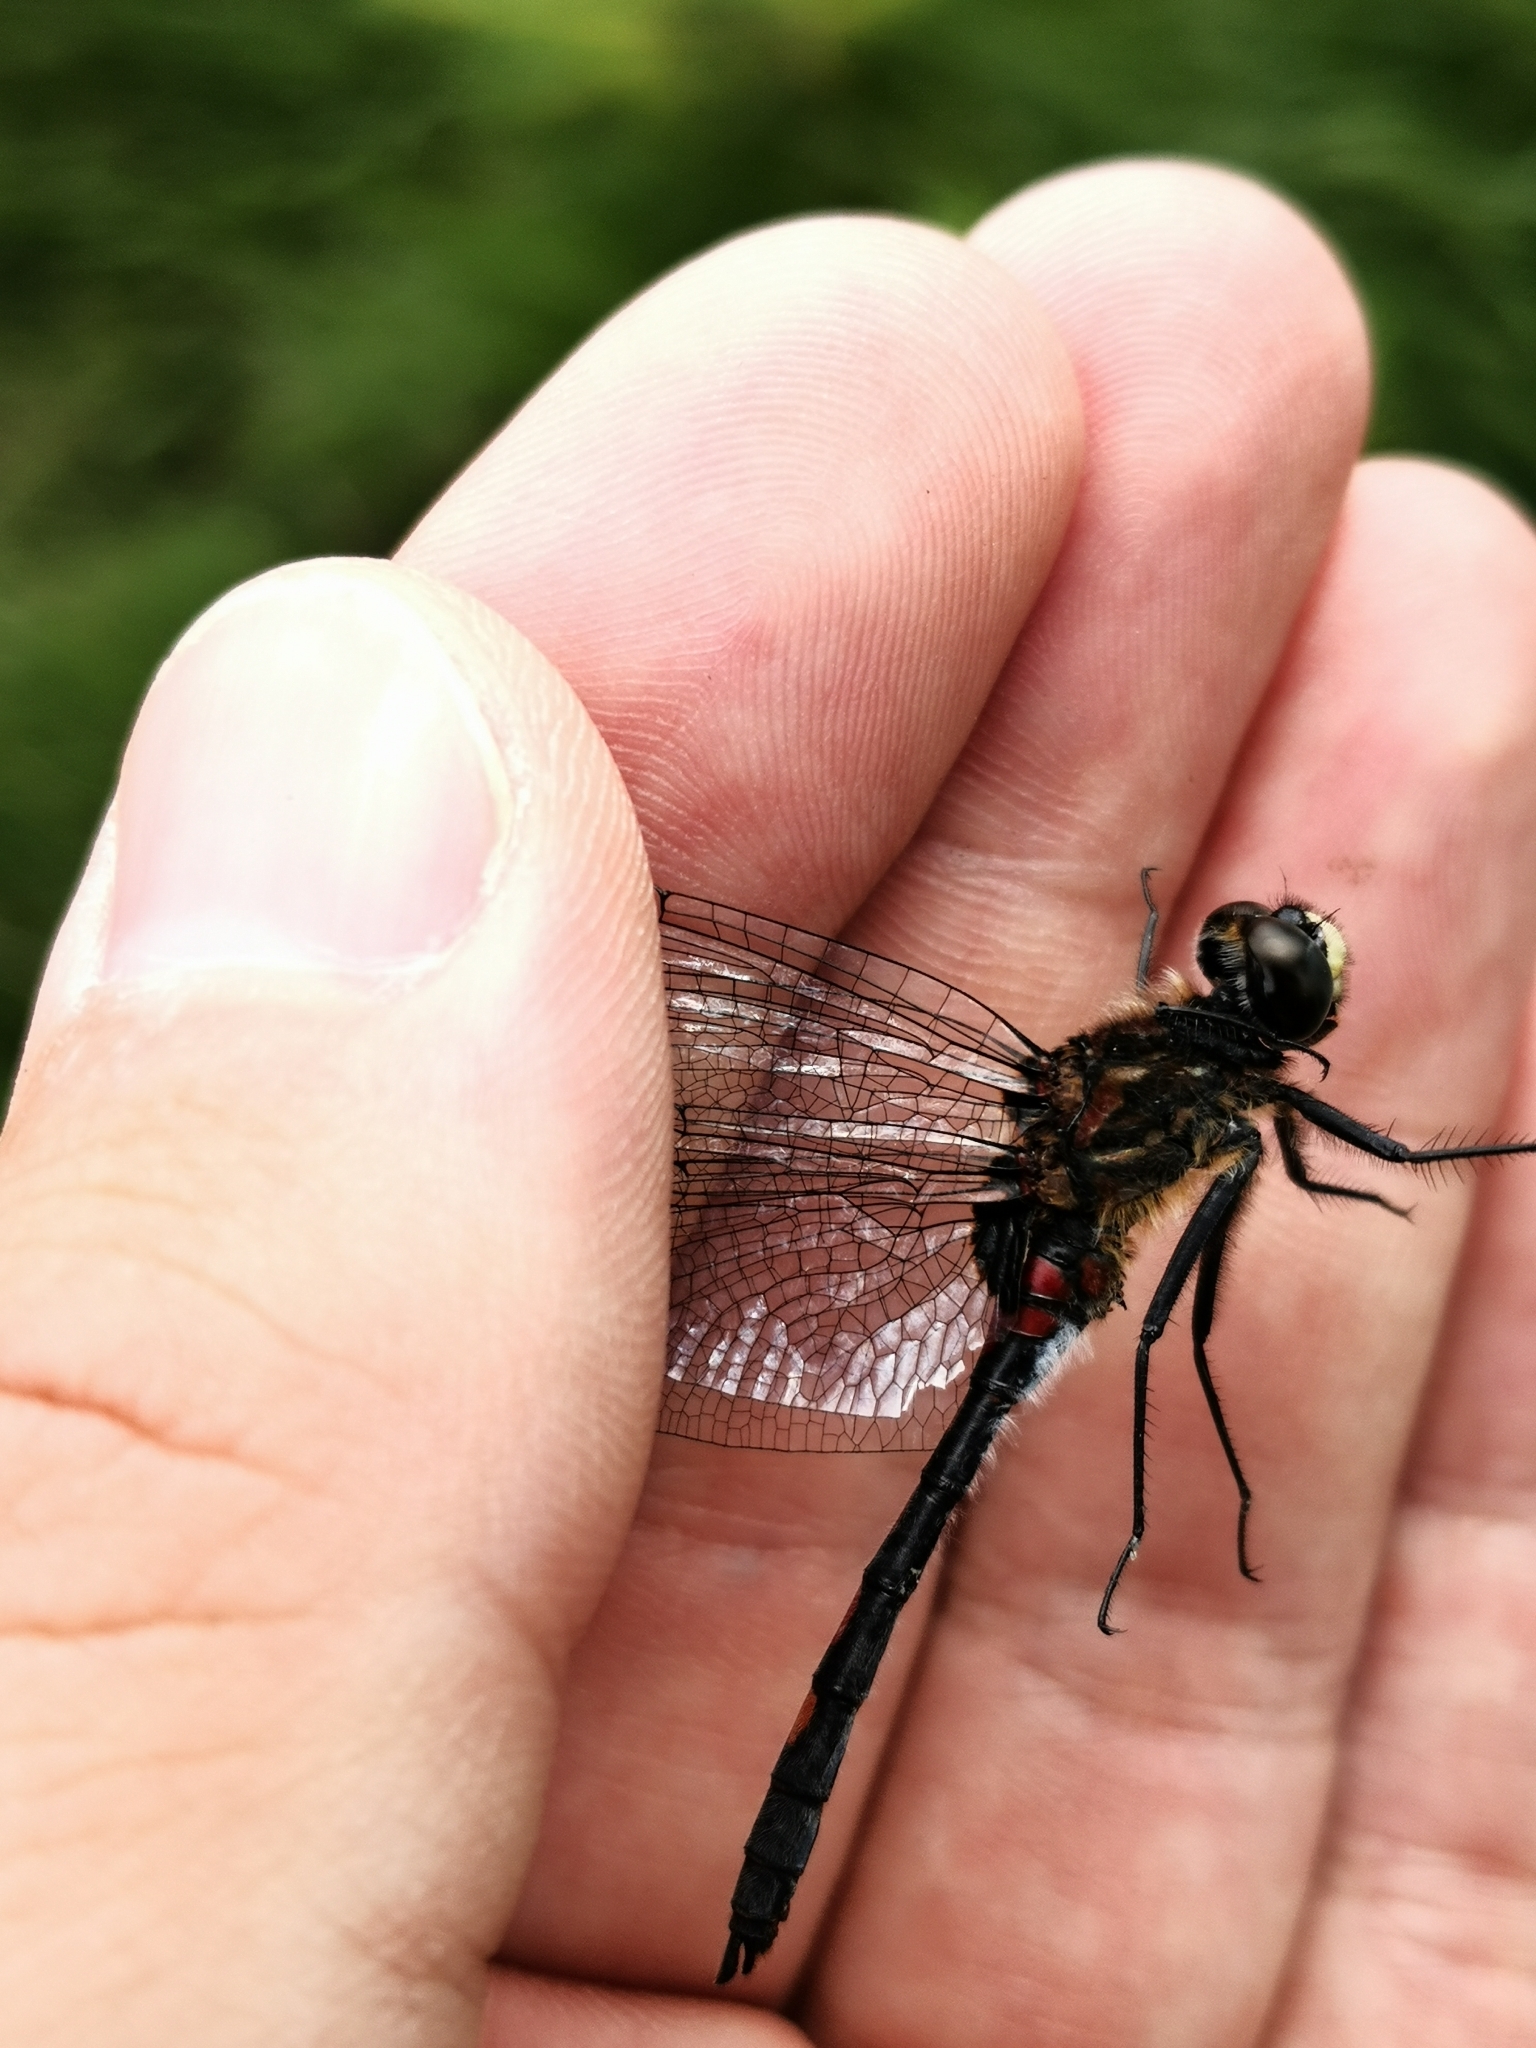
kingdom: Animalia
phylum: Arthropoda
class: Insecta
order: Odonata
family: Libellulidae
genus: Leucorrhinia
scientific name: Leucorrhinia dubia
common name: White-faced darter
